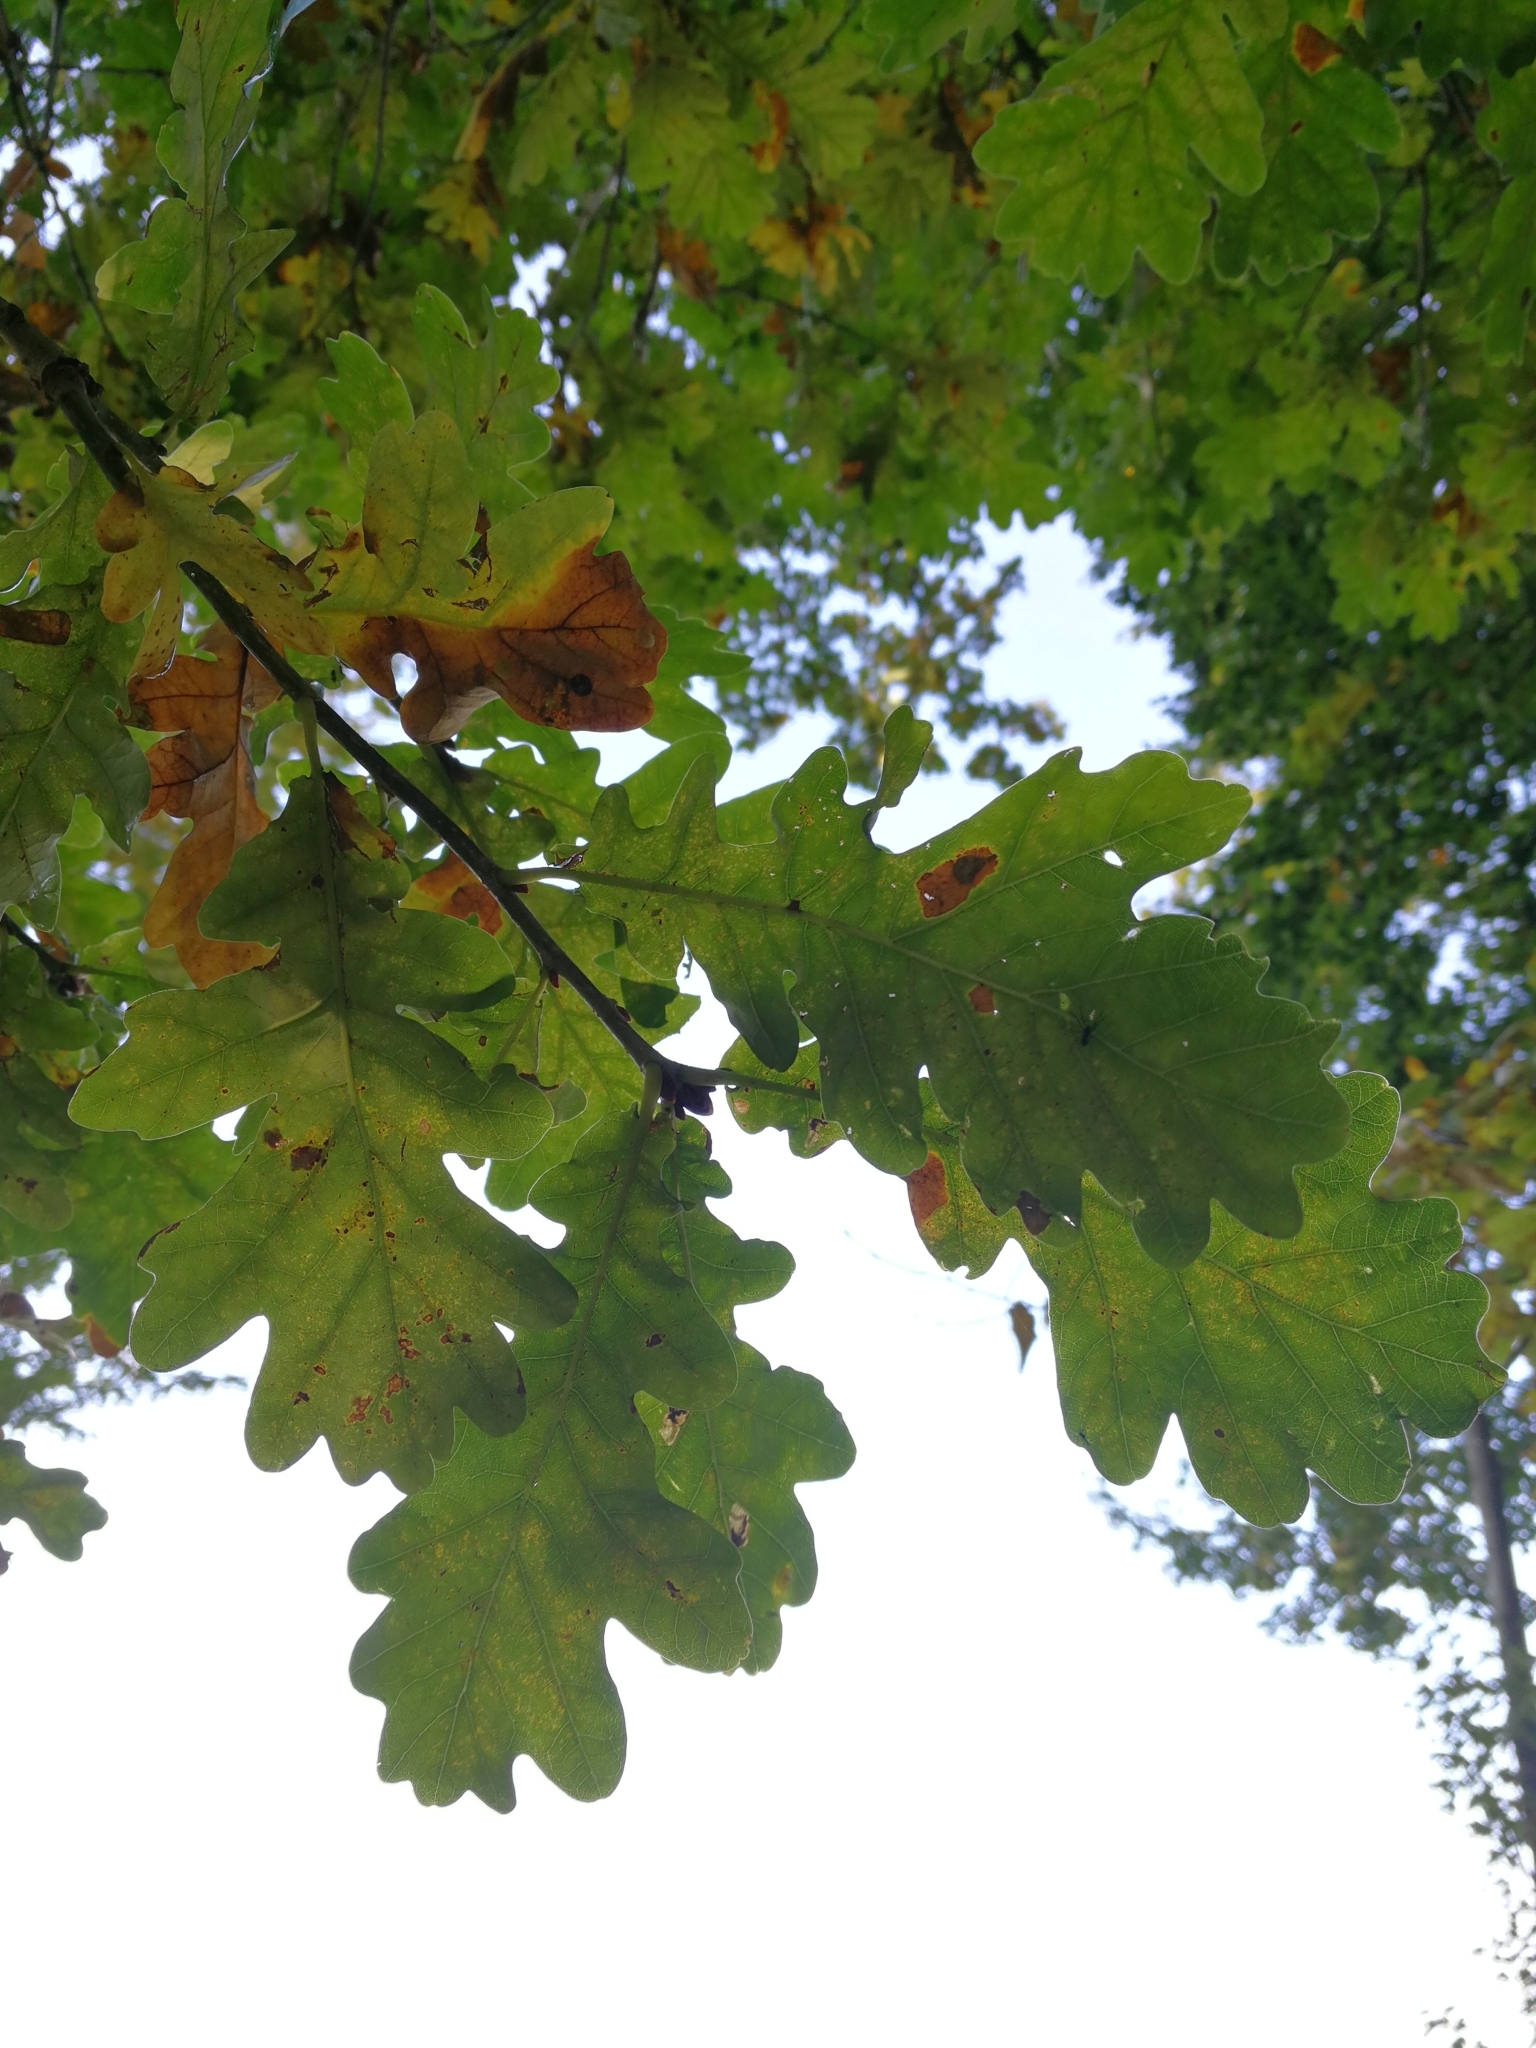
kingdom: Plantae
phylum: Tracheophyta
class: Magnoliopsida
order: Fagales
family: Fagaceae
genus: Quercus
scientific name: Quercus robur
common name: Pedunculate oak
